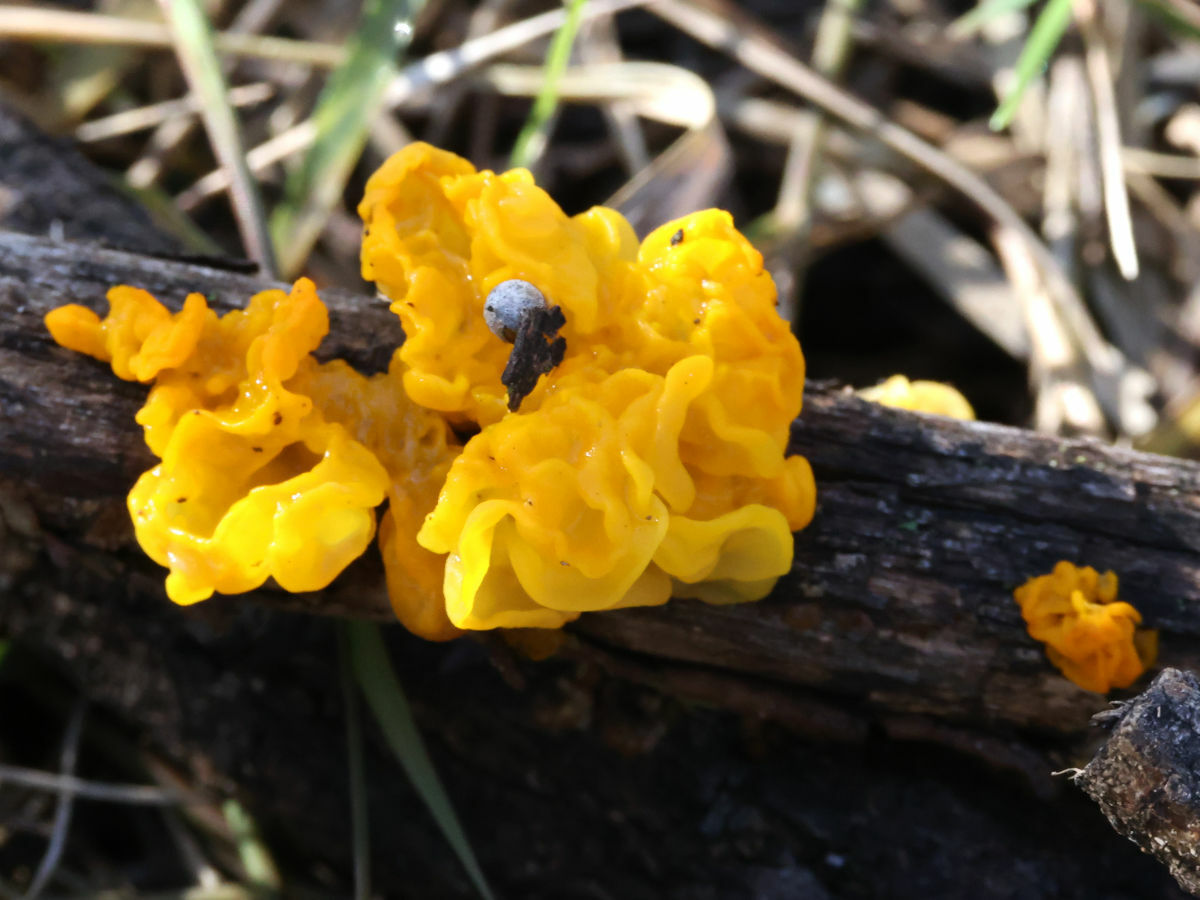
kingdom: Fungi
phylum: Basidiomycota
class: Tremellomycetes
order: Tremellales
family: Tremellaceae
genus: Tremella
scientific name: Tremella mesenterica
